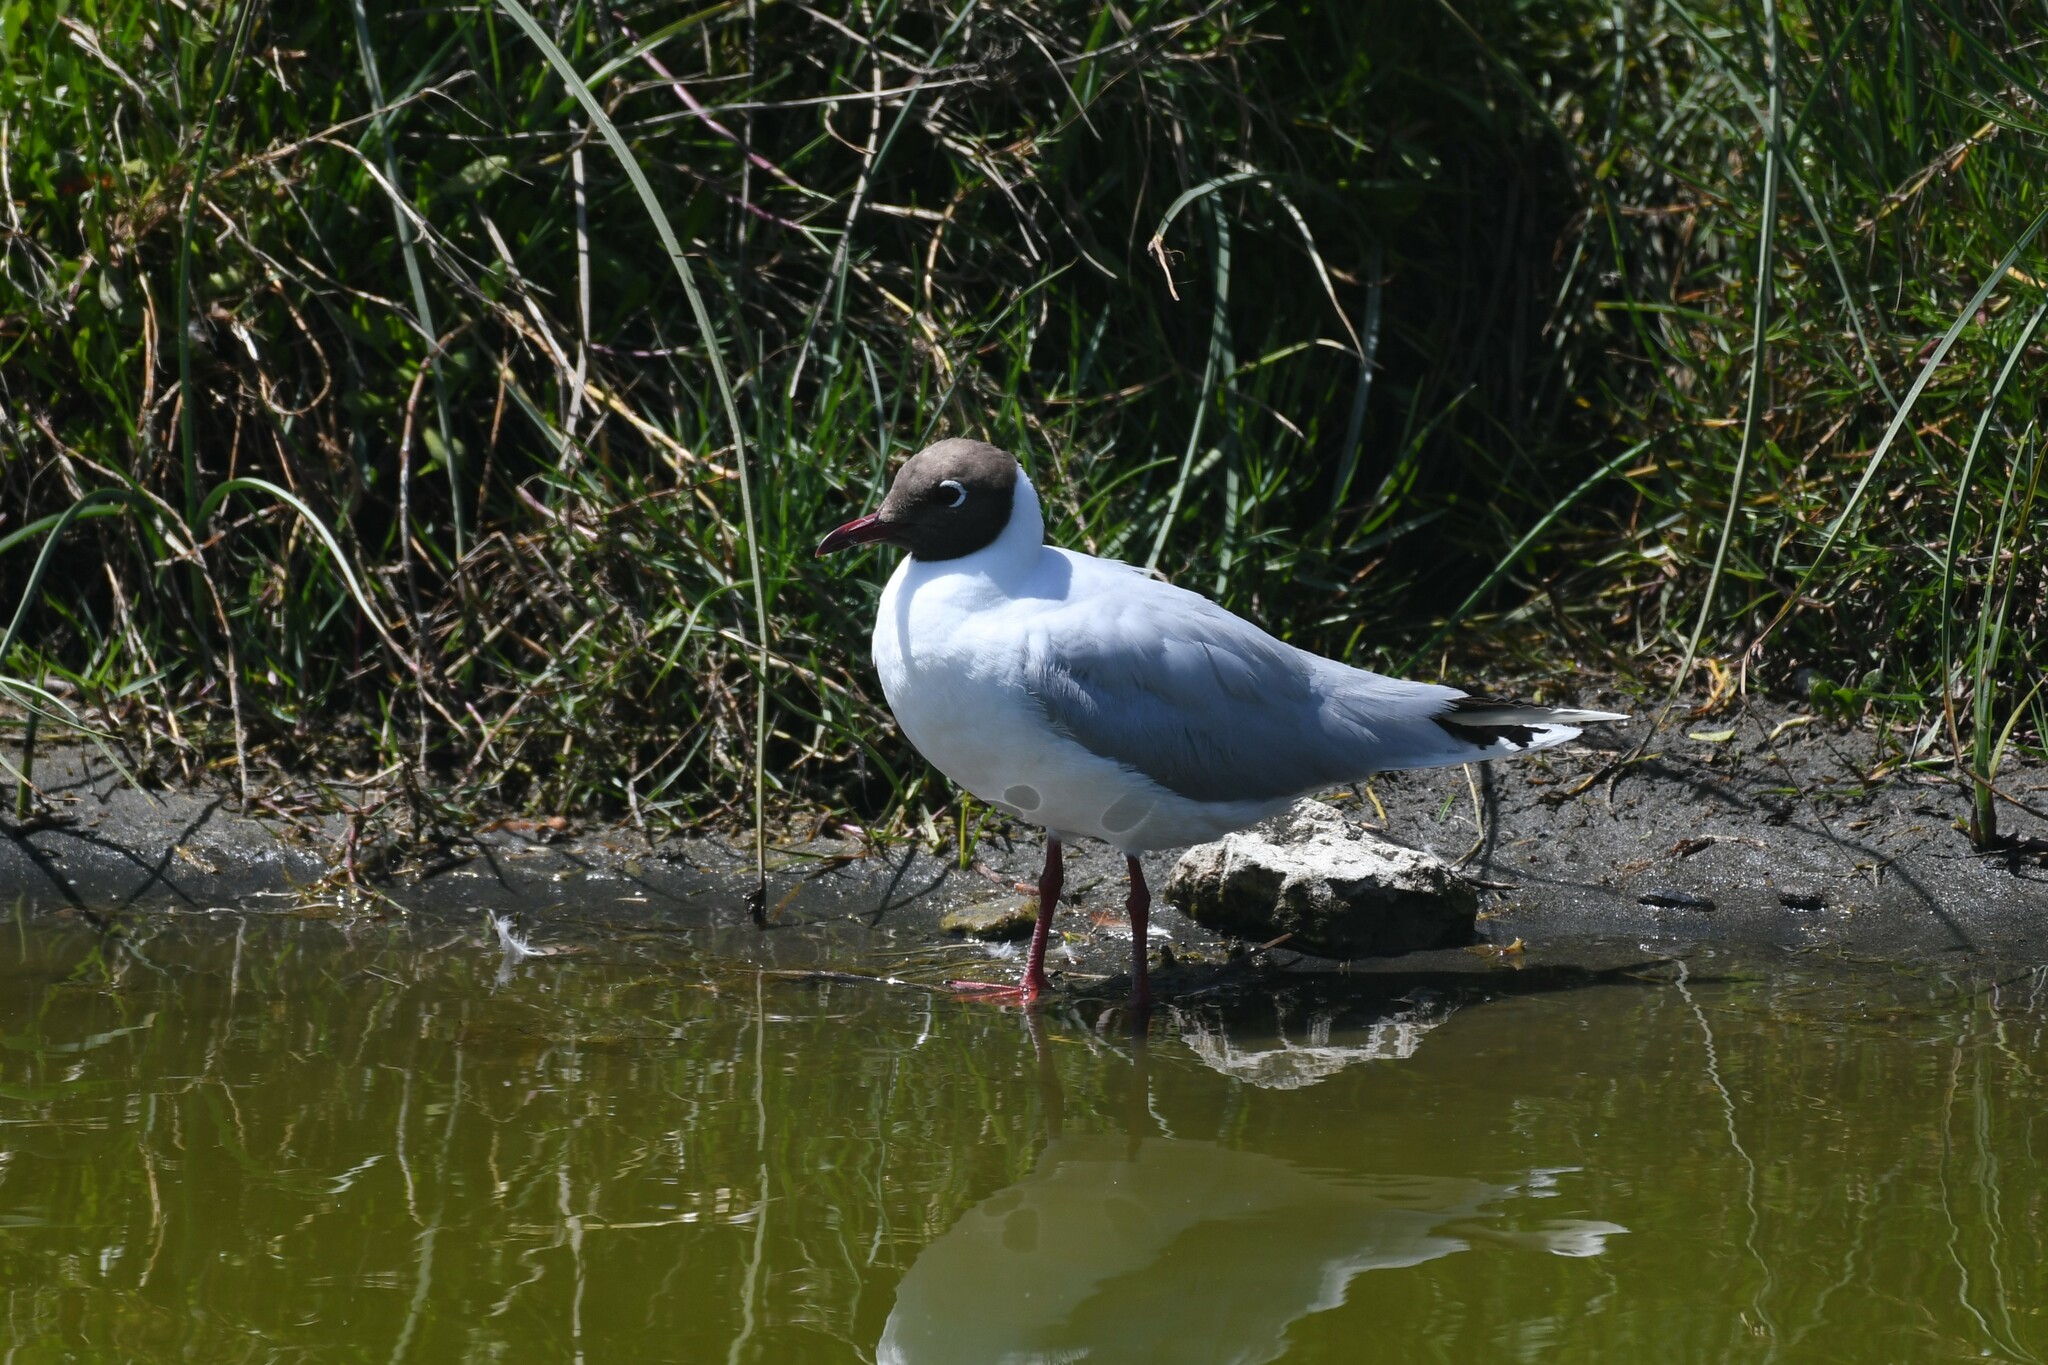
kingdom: Animalia
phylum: Chordata
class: Aves
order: Charadriiformes
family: Laridae
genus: Chroicocephalus
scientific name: Chroicocephalus maculipennis
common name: Brown-hooded gull
